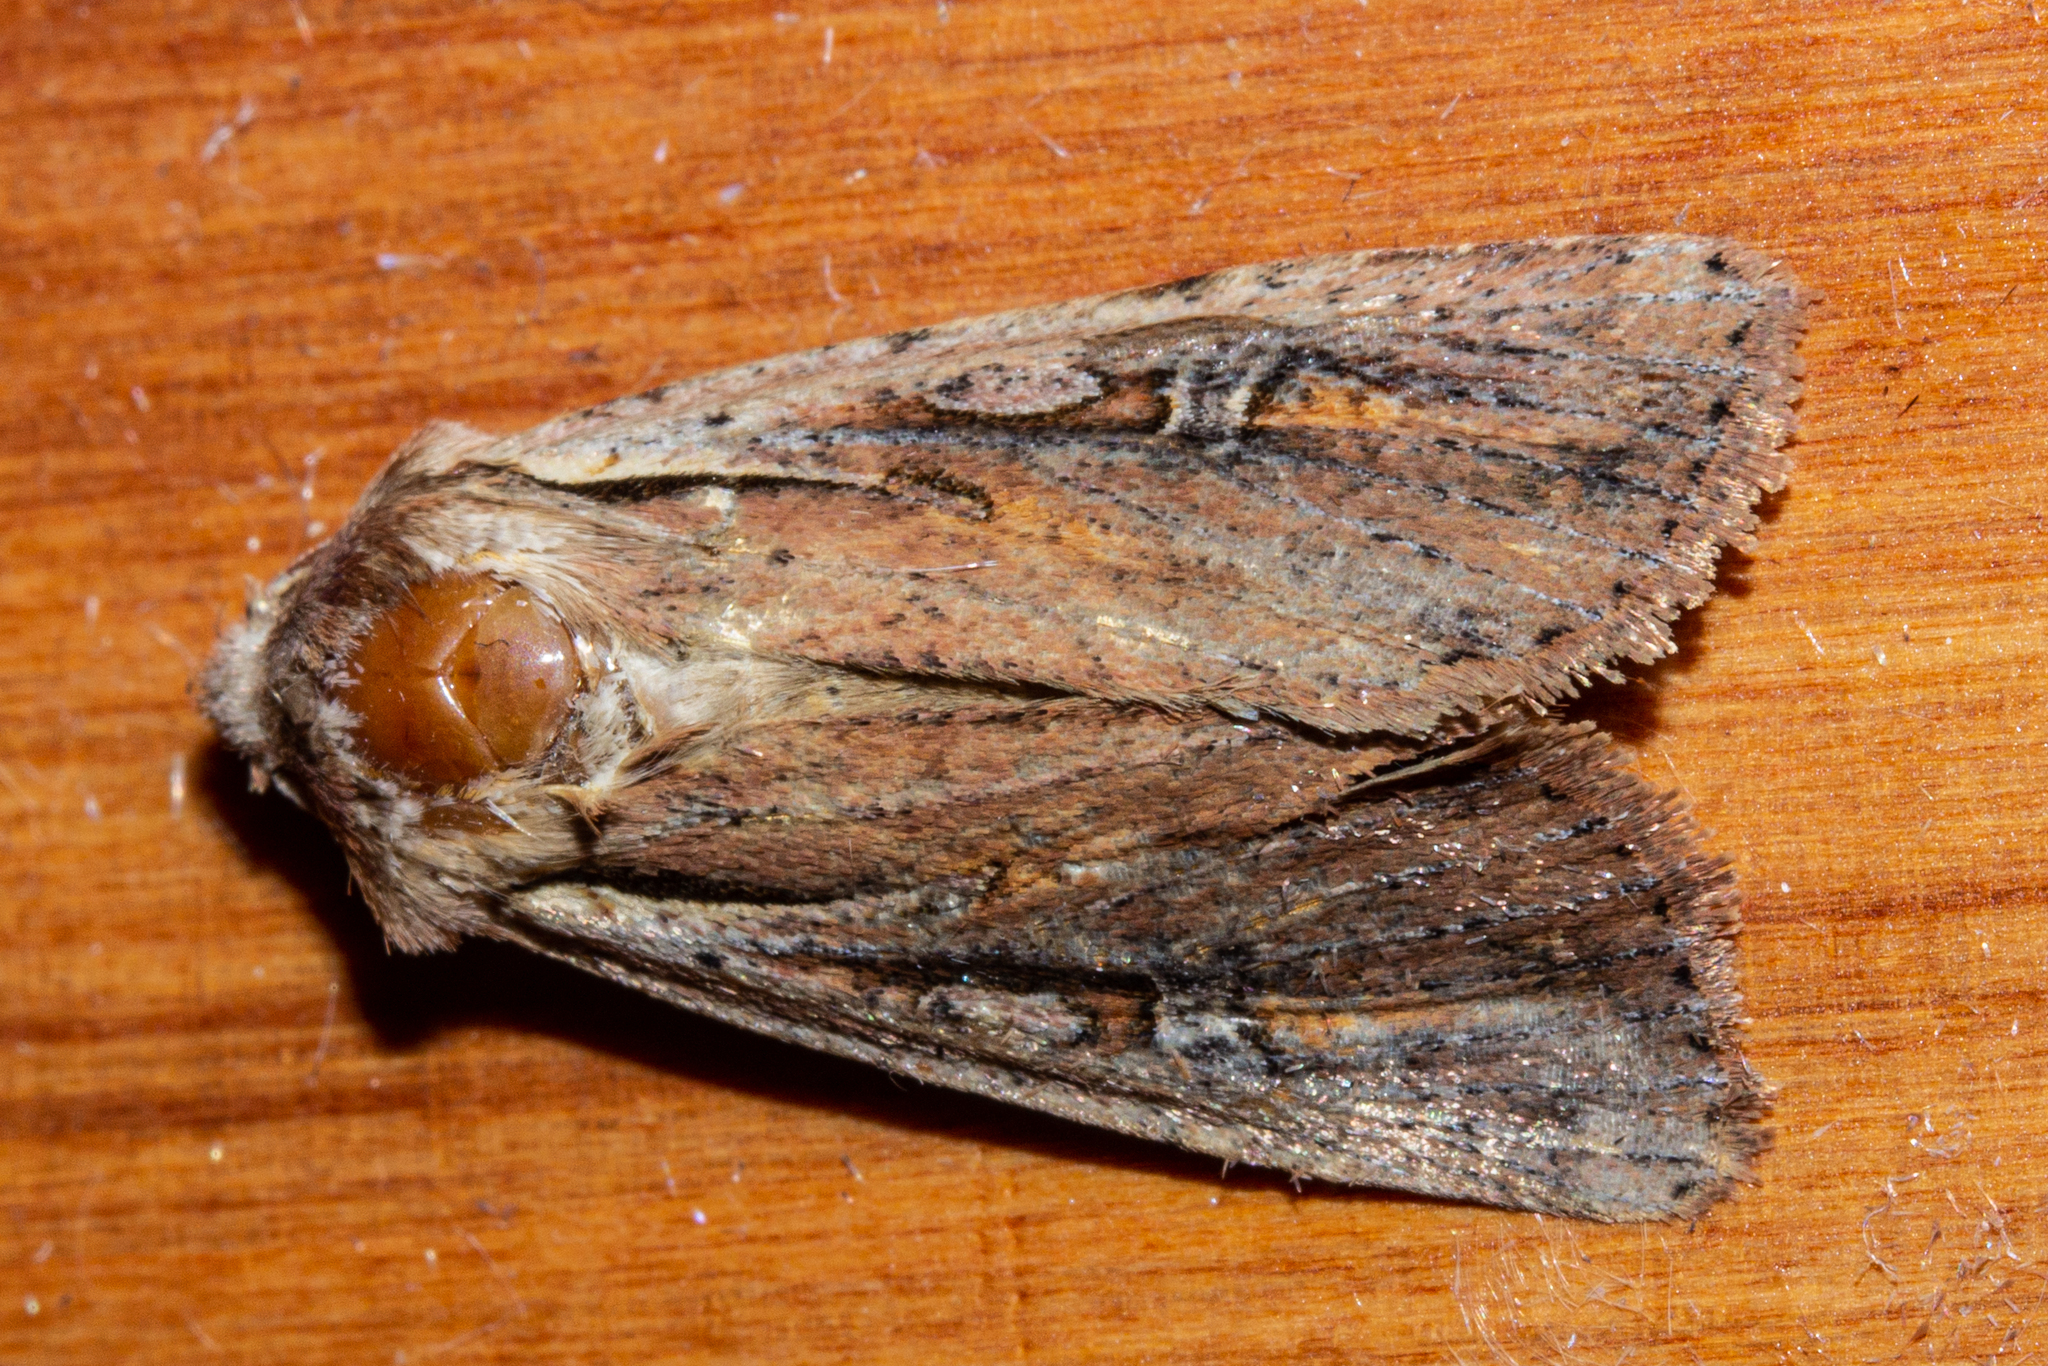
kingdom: Animalia
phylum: Arthropoda
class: Insecta
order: Lepidoptera
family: Noctuidae
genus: Ichneutica
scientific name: Ichneutica atristriga
